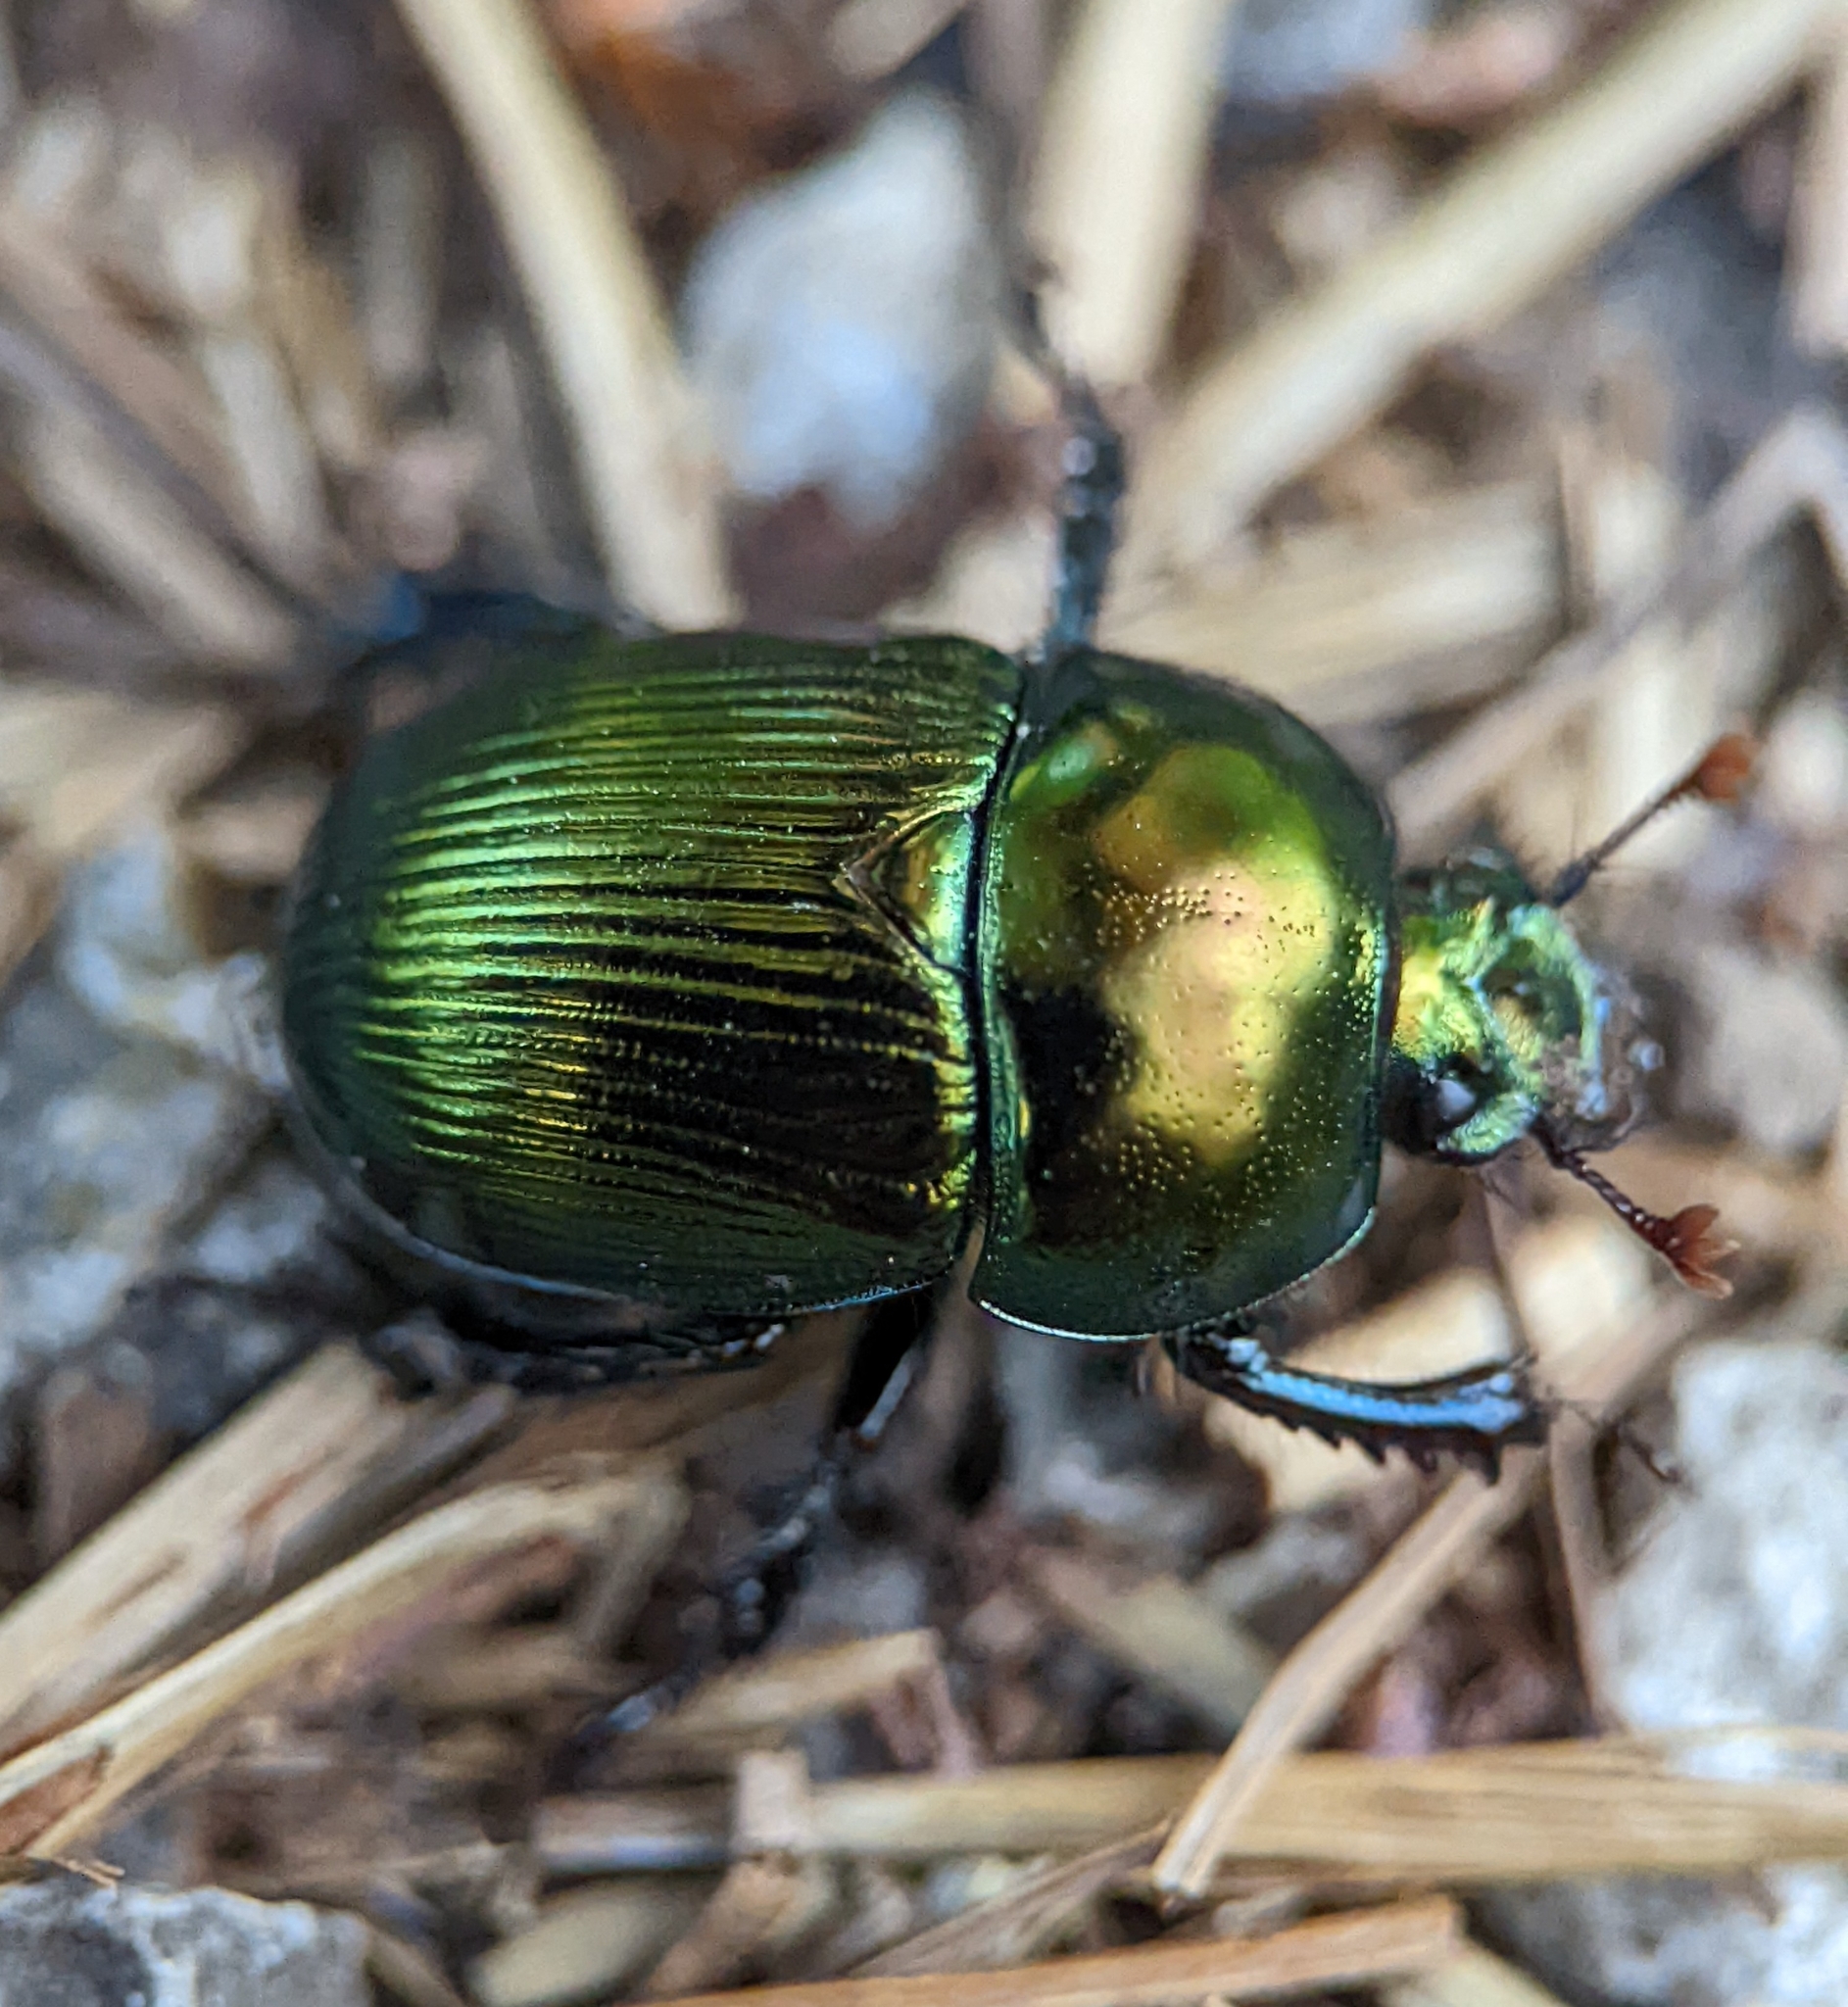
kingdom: Animalia
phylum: Arthropoda
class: Insecta
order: Coleoptera
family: Geotrupidae
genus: Geotrupes
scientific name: Geotrupes splendidus
